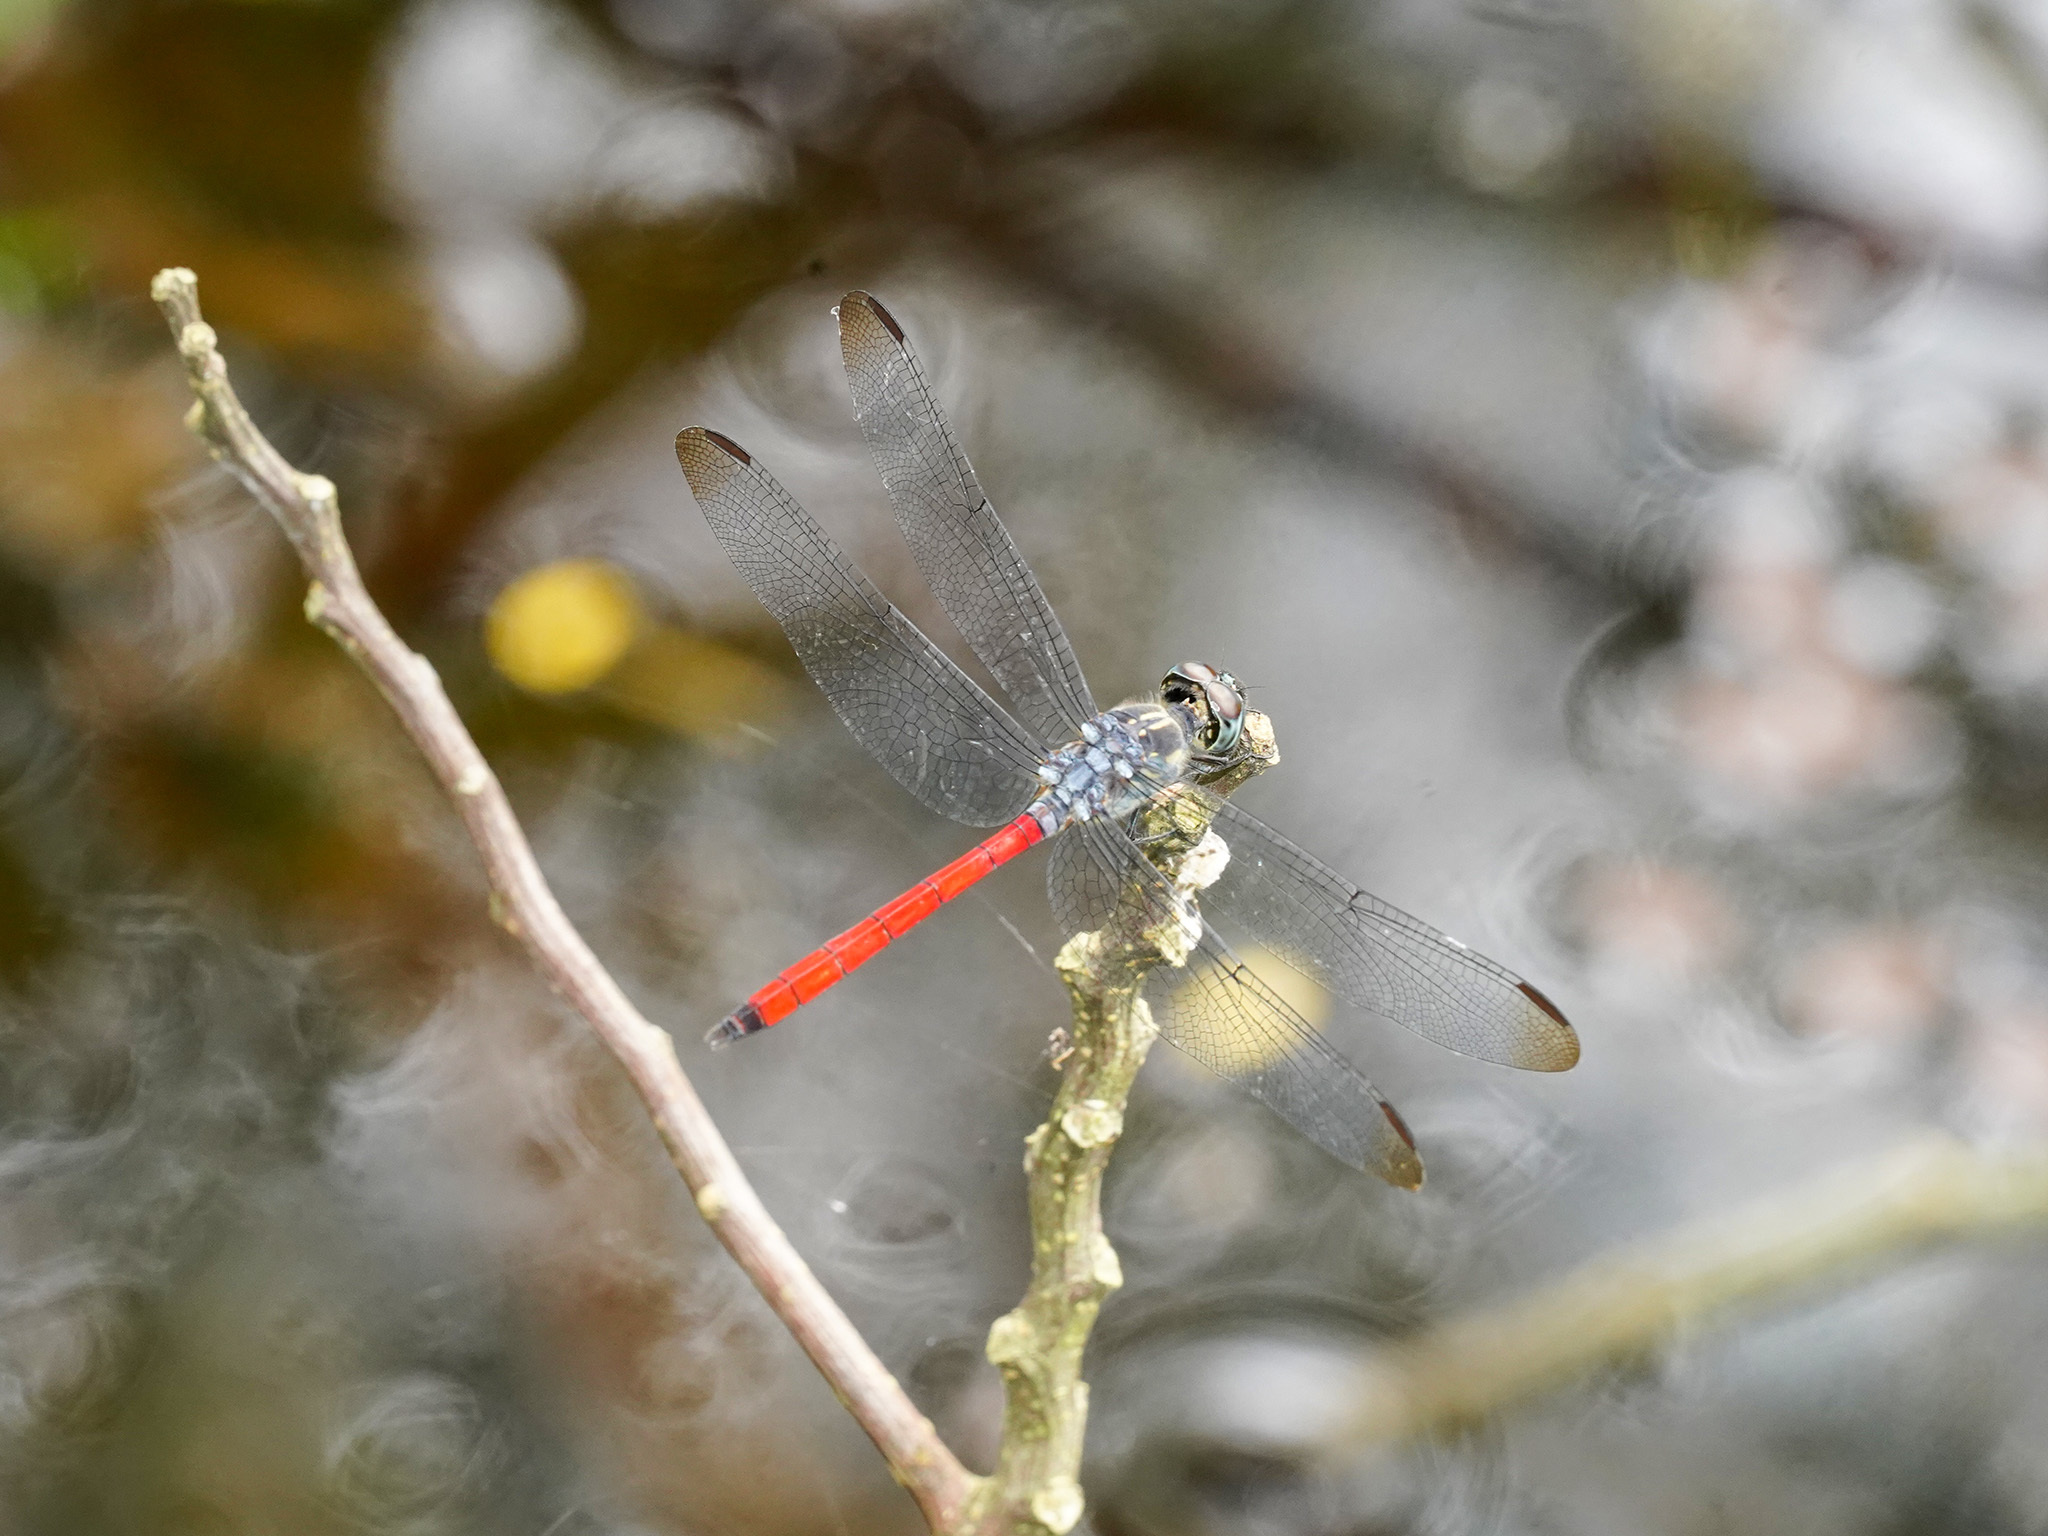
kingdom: Animalia
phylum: Arthropoda
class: Insecta
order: Odonata
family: Libellulidae
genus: Lathrecista
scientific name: Lathrecista asiatica
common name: Scarlet grenadier
